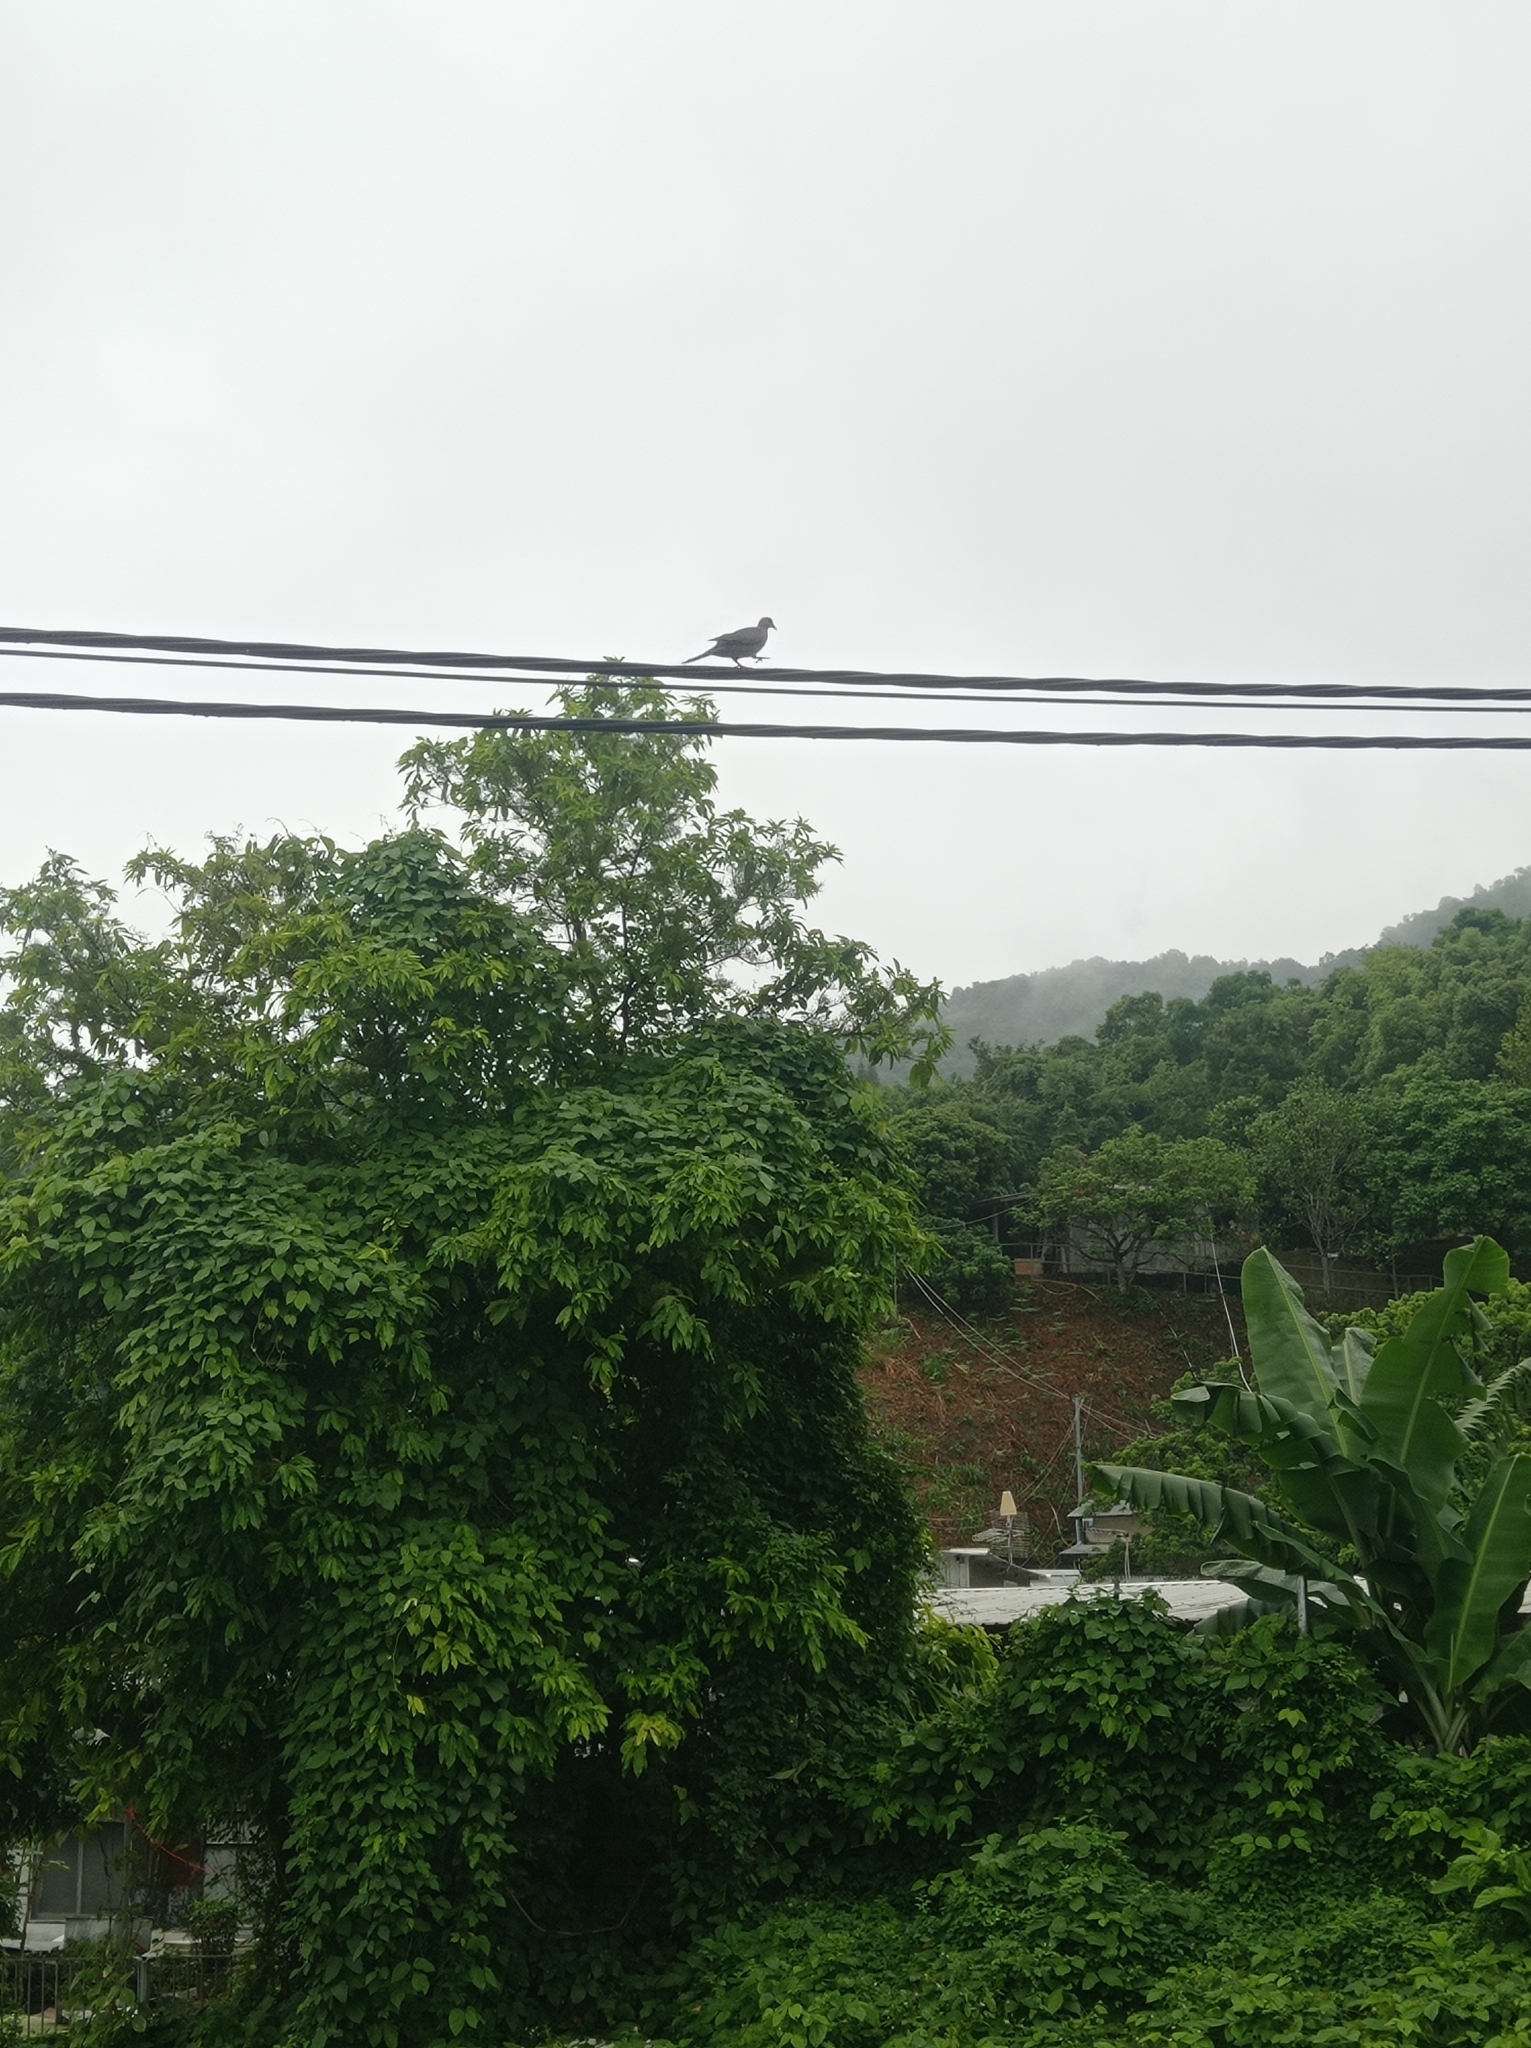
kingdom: Animalia
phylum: Chordata
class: Aves
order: Columbiformes
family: Columbidae
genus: Spilopelia
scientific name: Spilopelia chinensis
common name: Spotted dove
